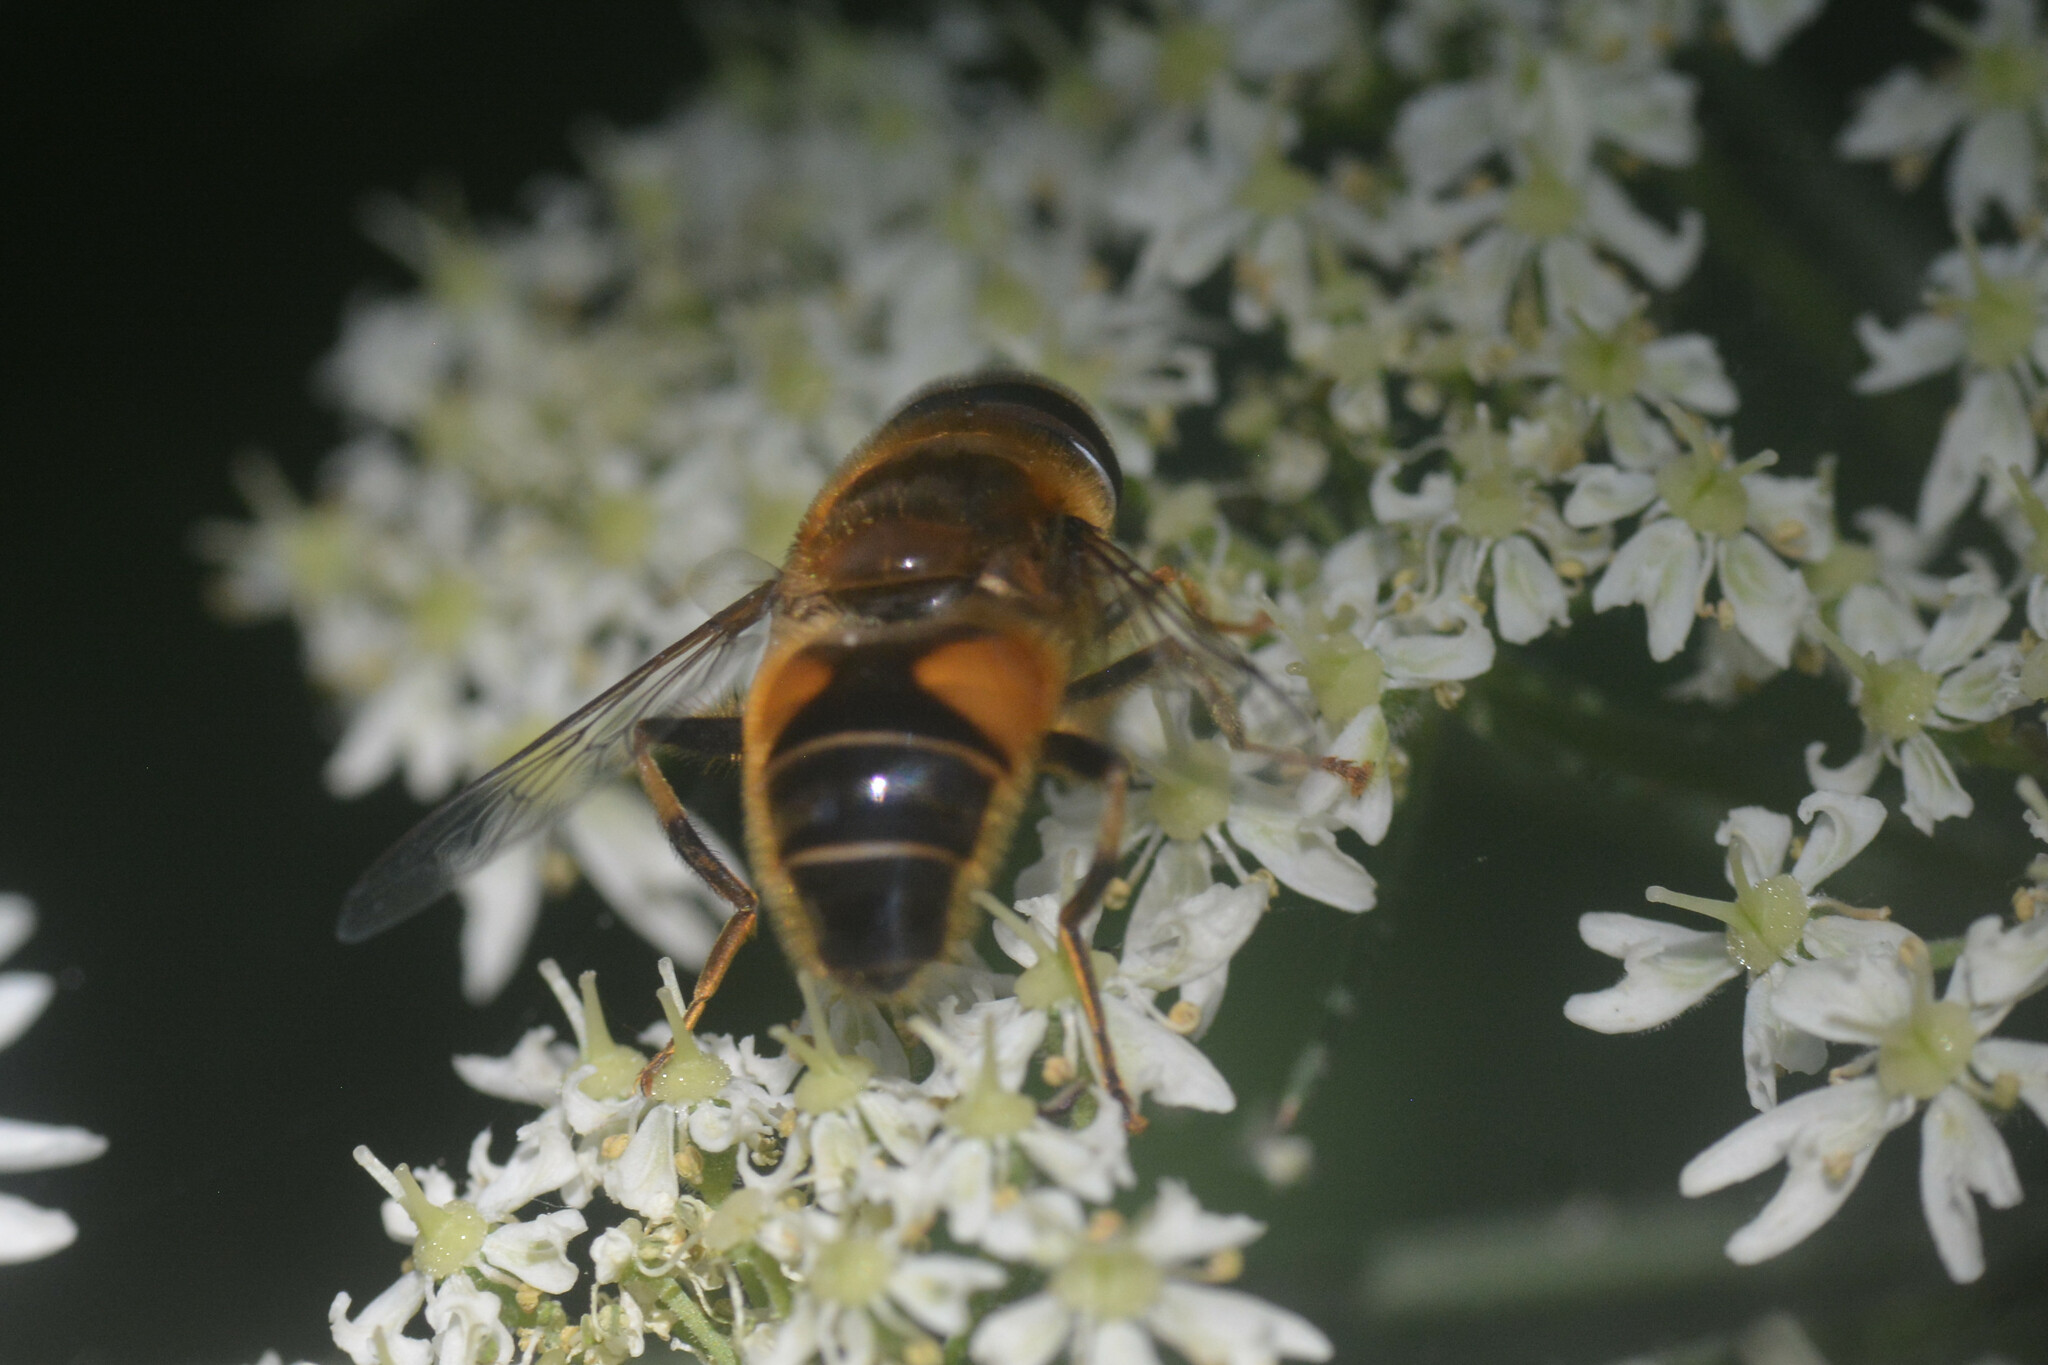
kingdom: Animalia
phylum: Arthropoda
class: Insecta
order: Diptera
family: Syrphidae
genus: Eristalis
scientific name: Eristalis pertinax
